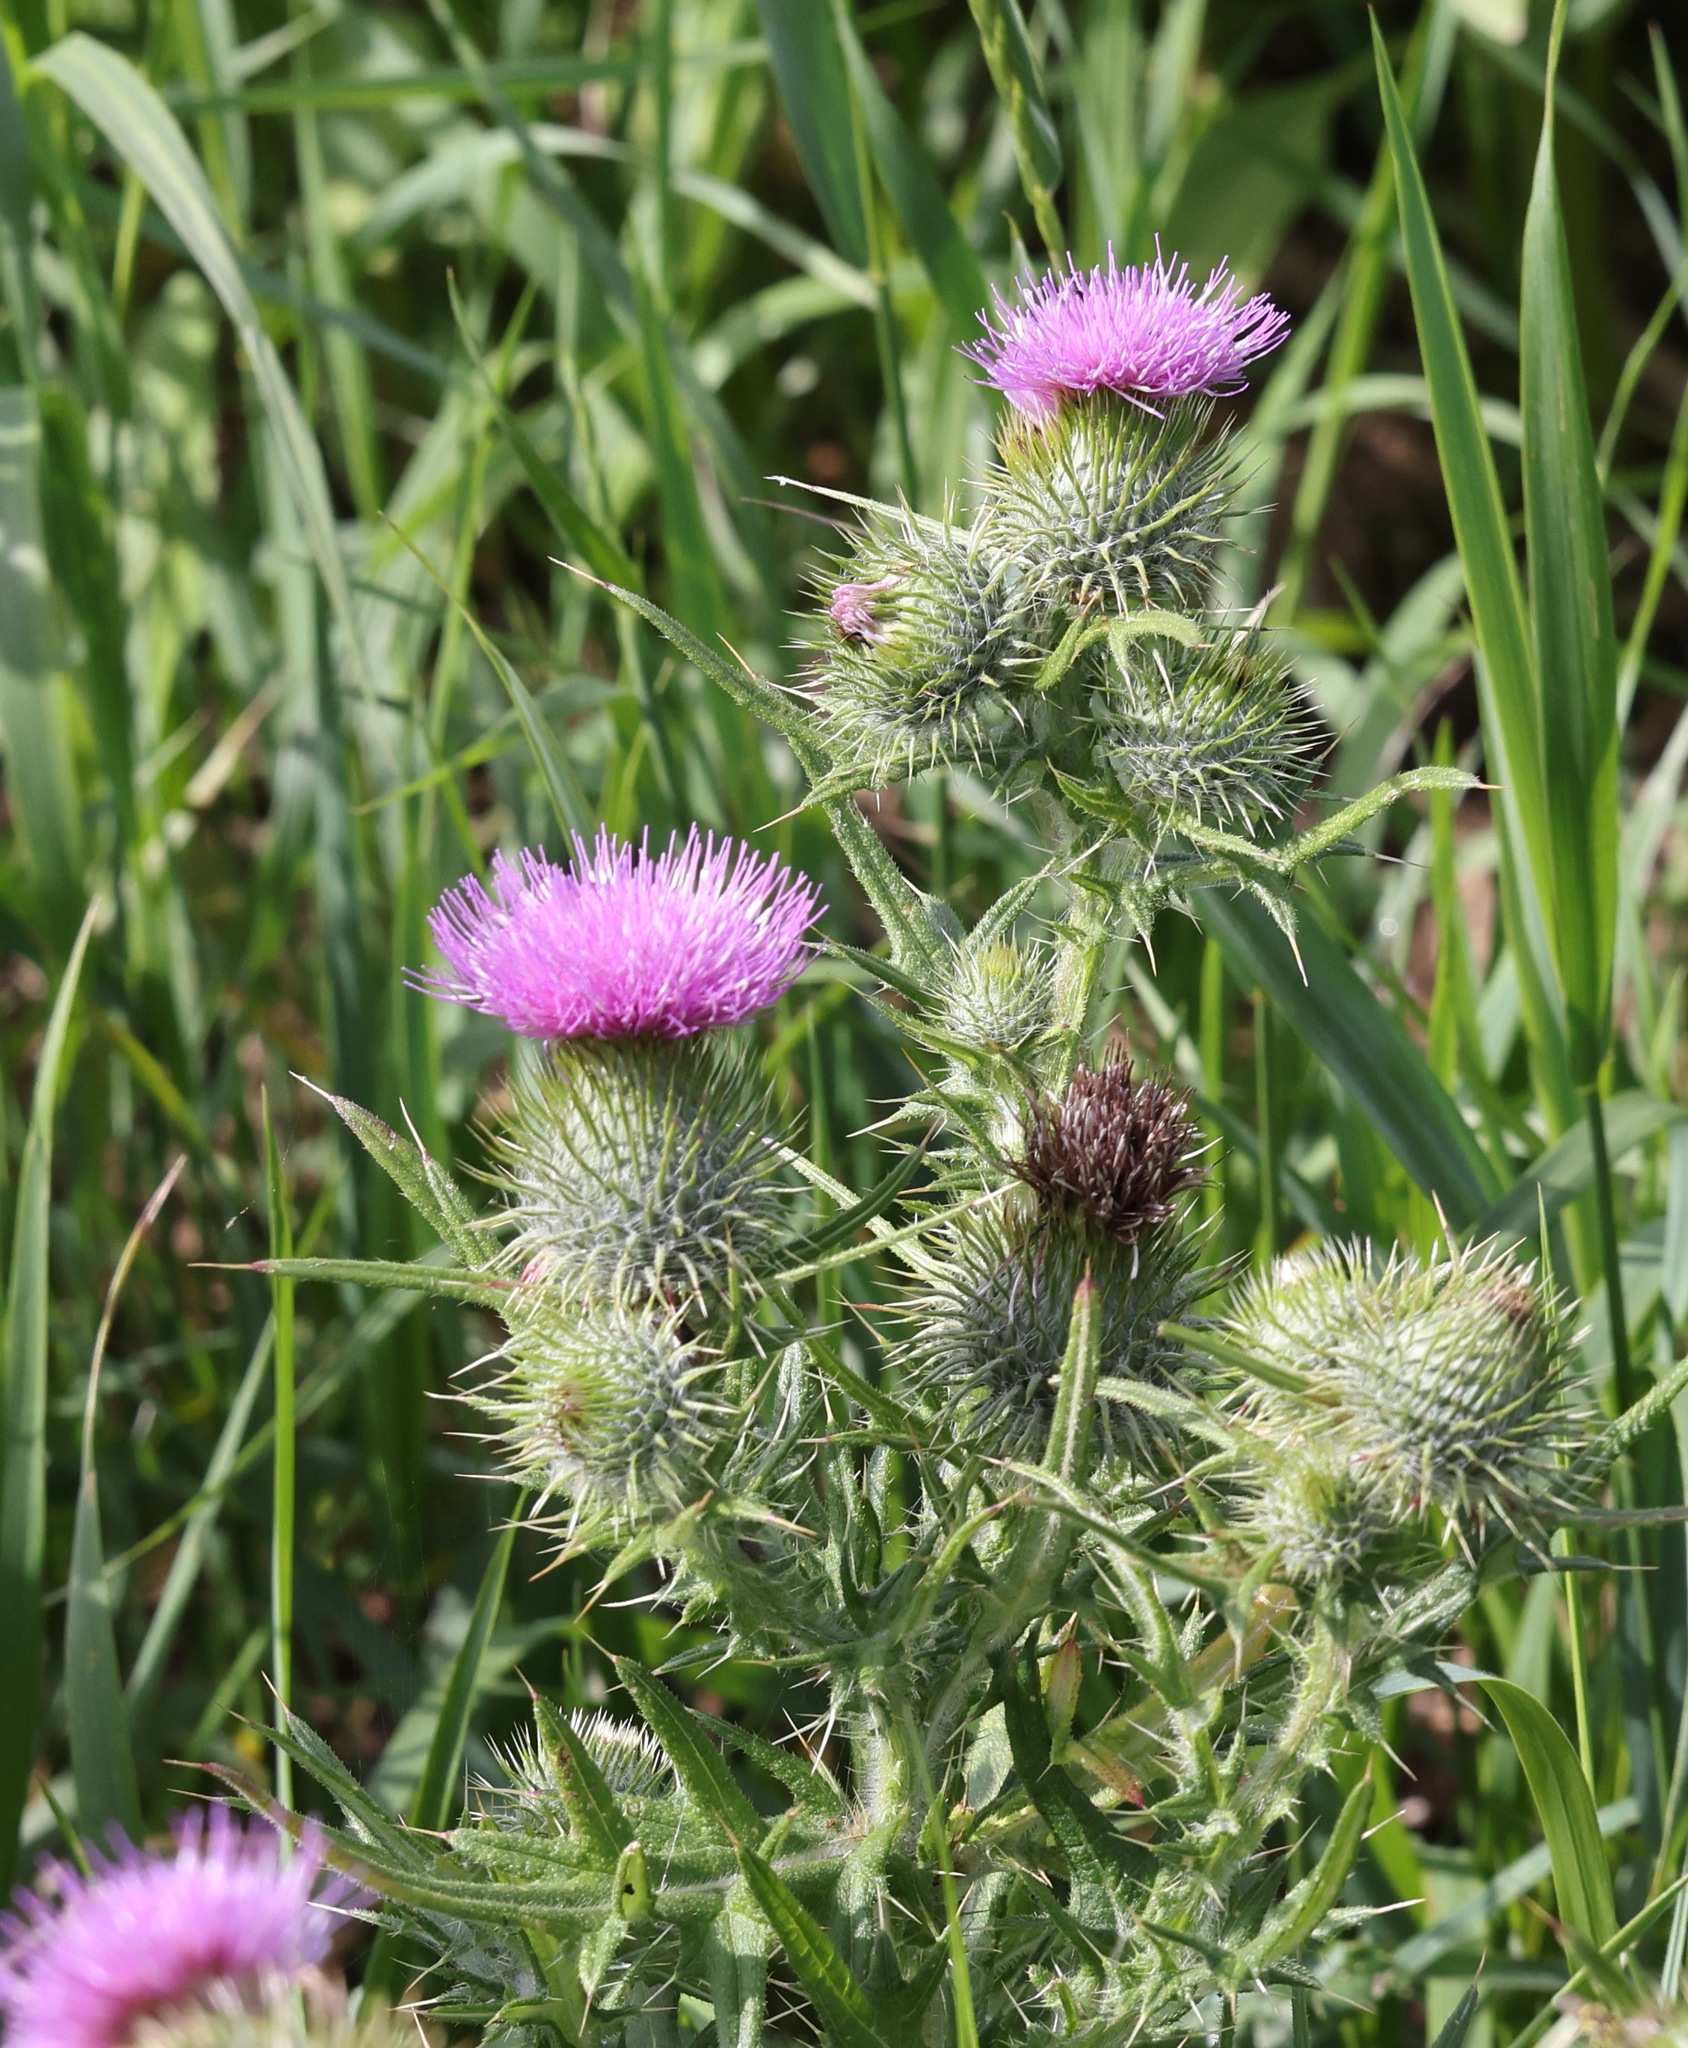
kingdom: Plantae
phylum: Tracheophyta
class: Magnoliopsida
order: Asterales
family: Asteraceae
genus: Cirsium
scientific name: Cirsium vulgare
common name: Bull thistle
